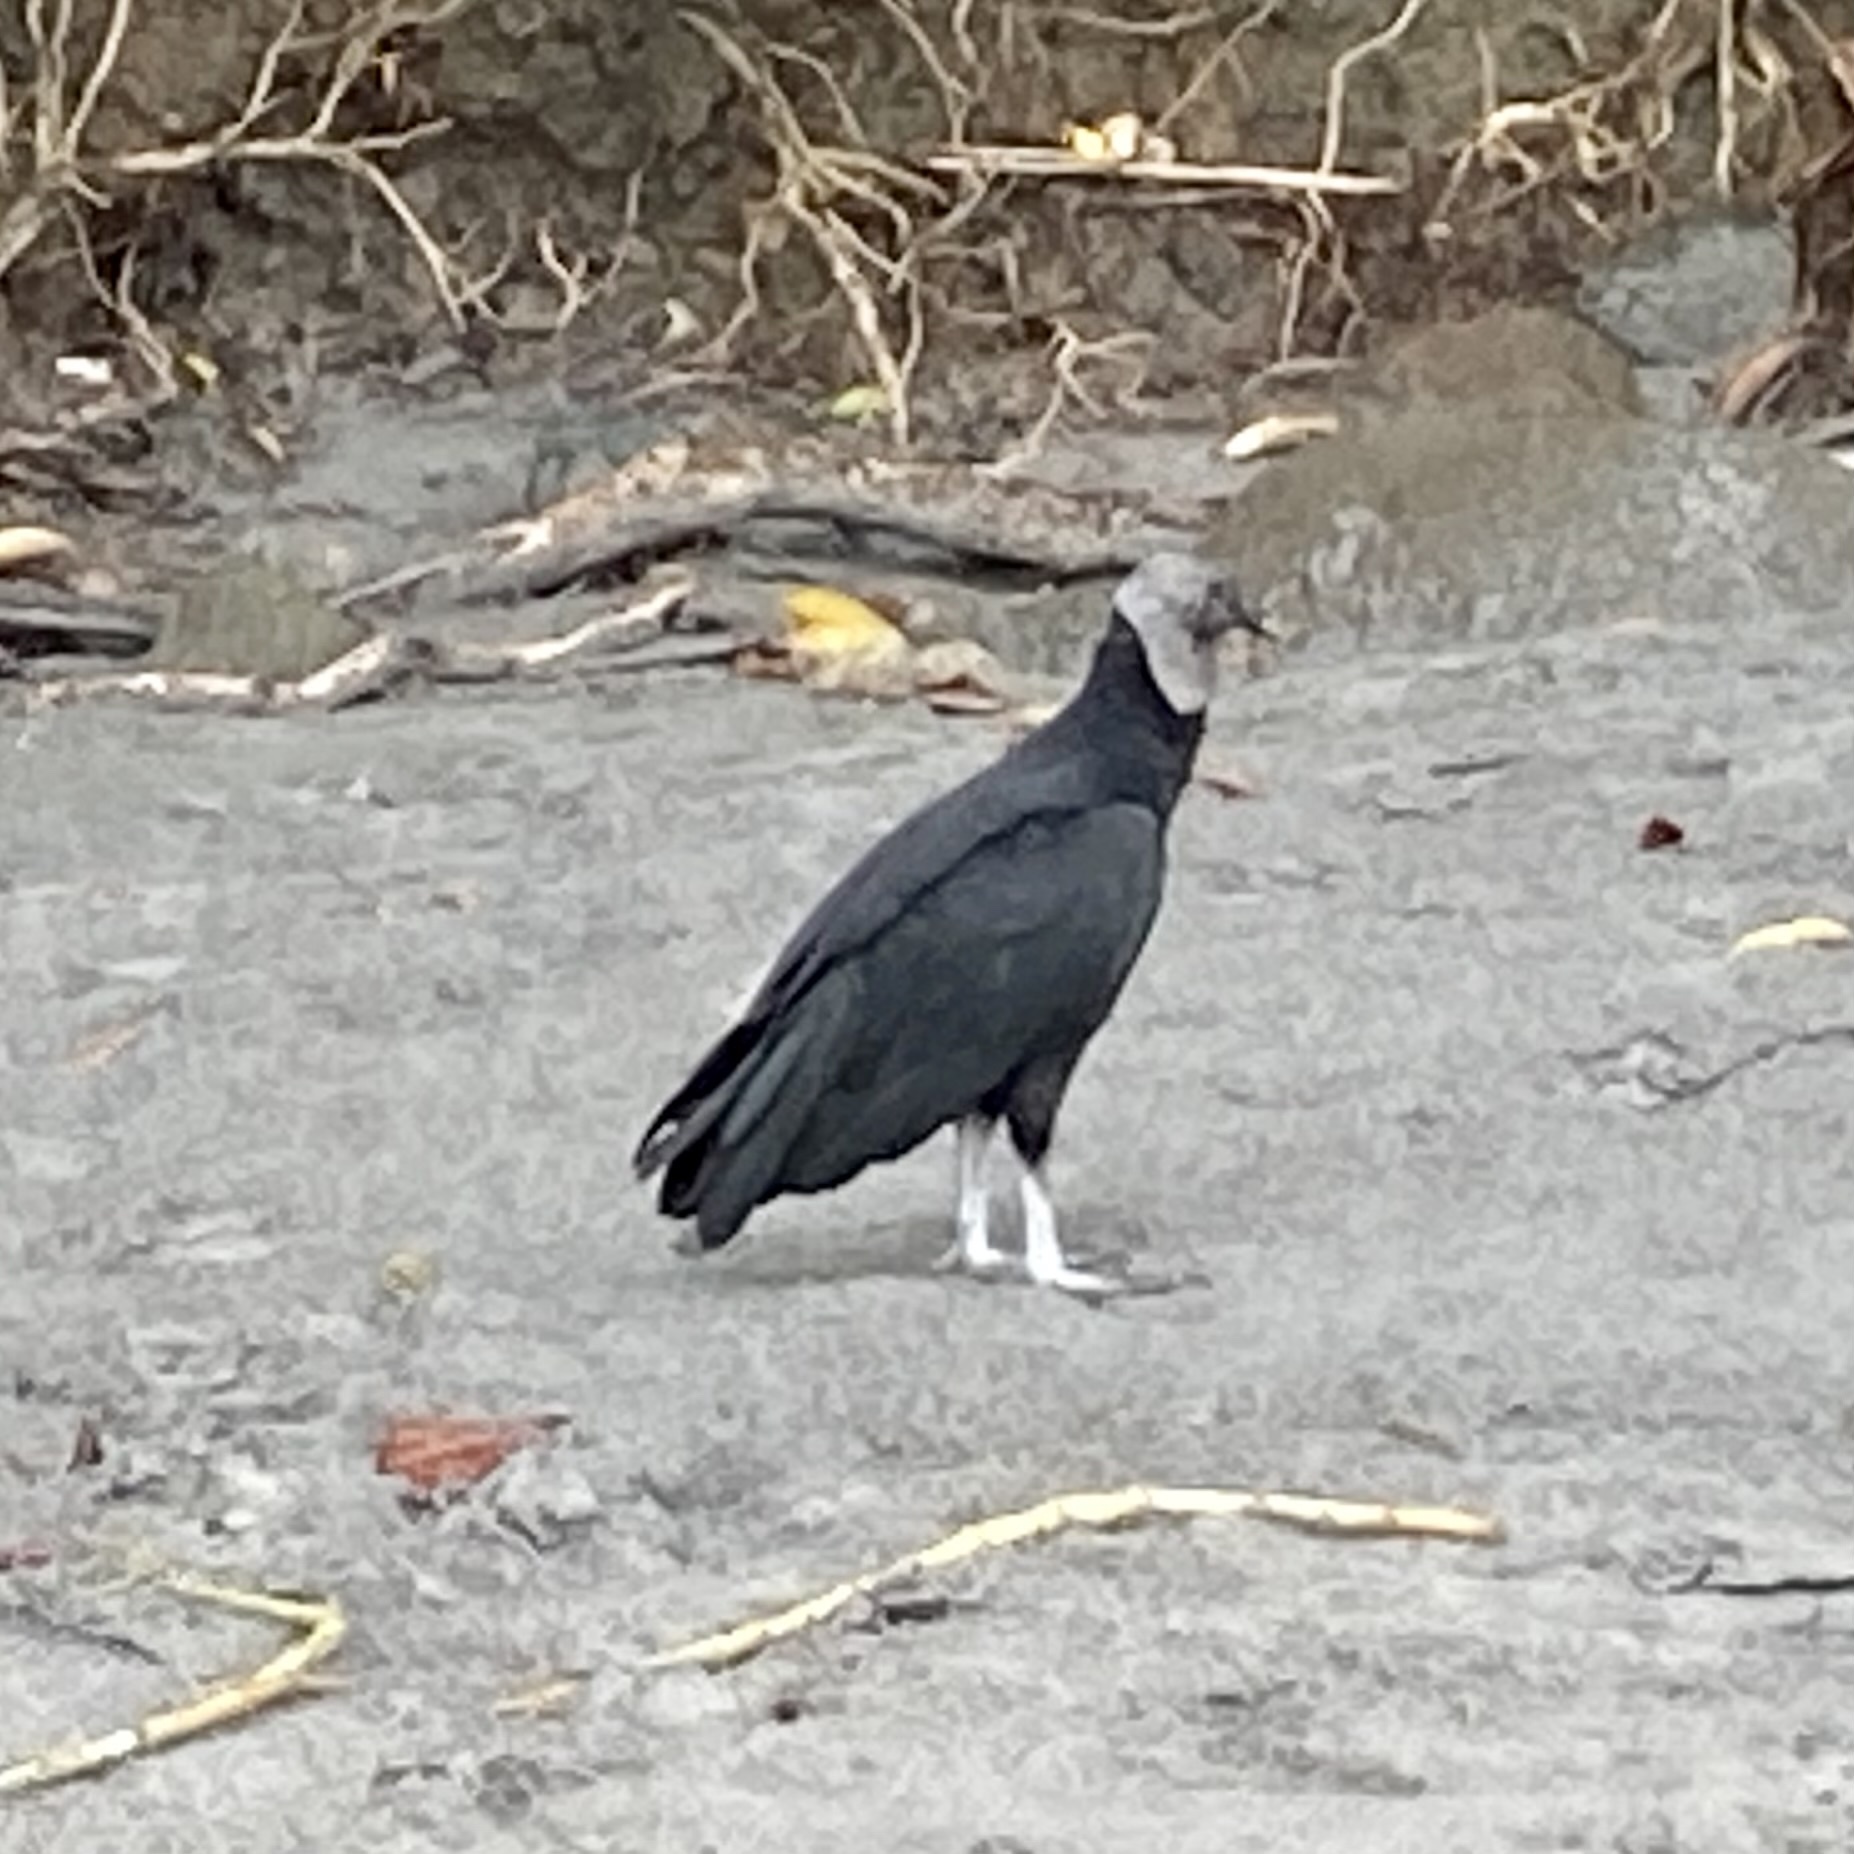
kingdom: Animalia
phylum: Chordata
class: Aves
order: Accipitriformes
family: Cathartidae
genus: Coragyps
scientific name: Coragyps atratus
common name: Black vulture
